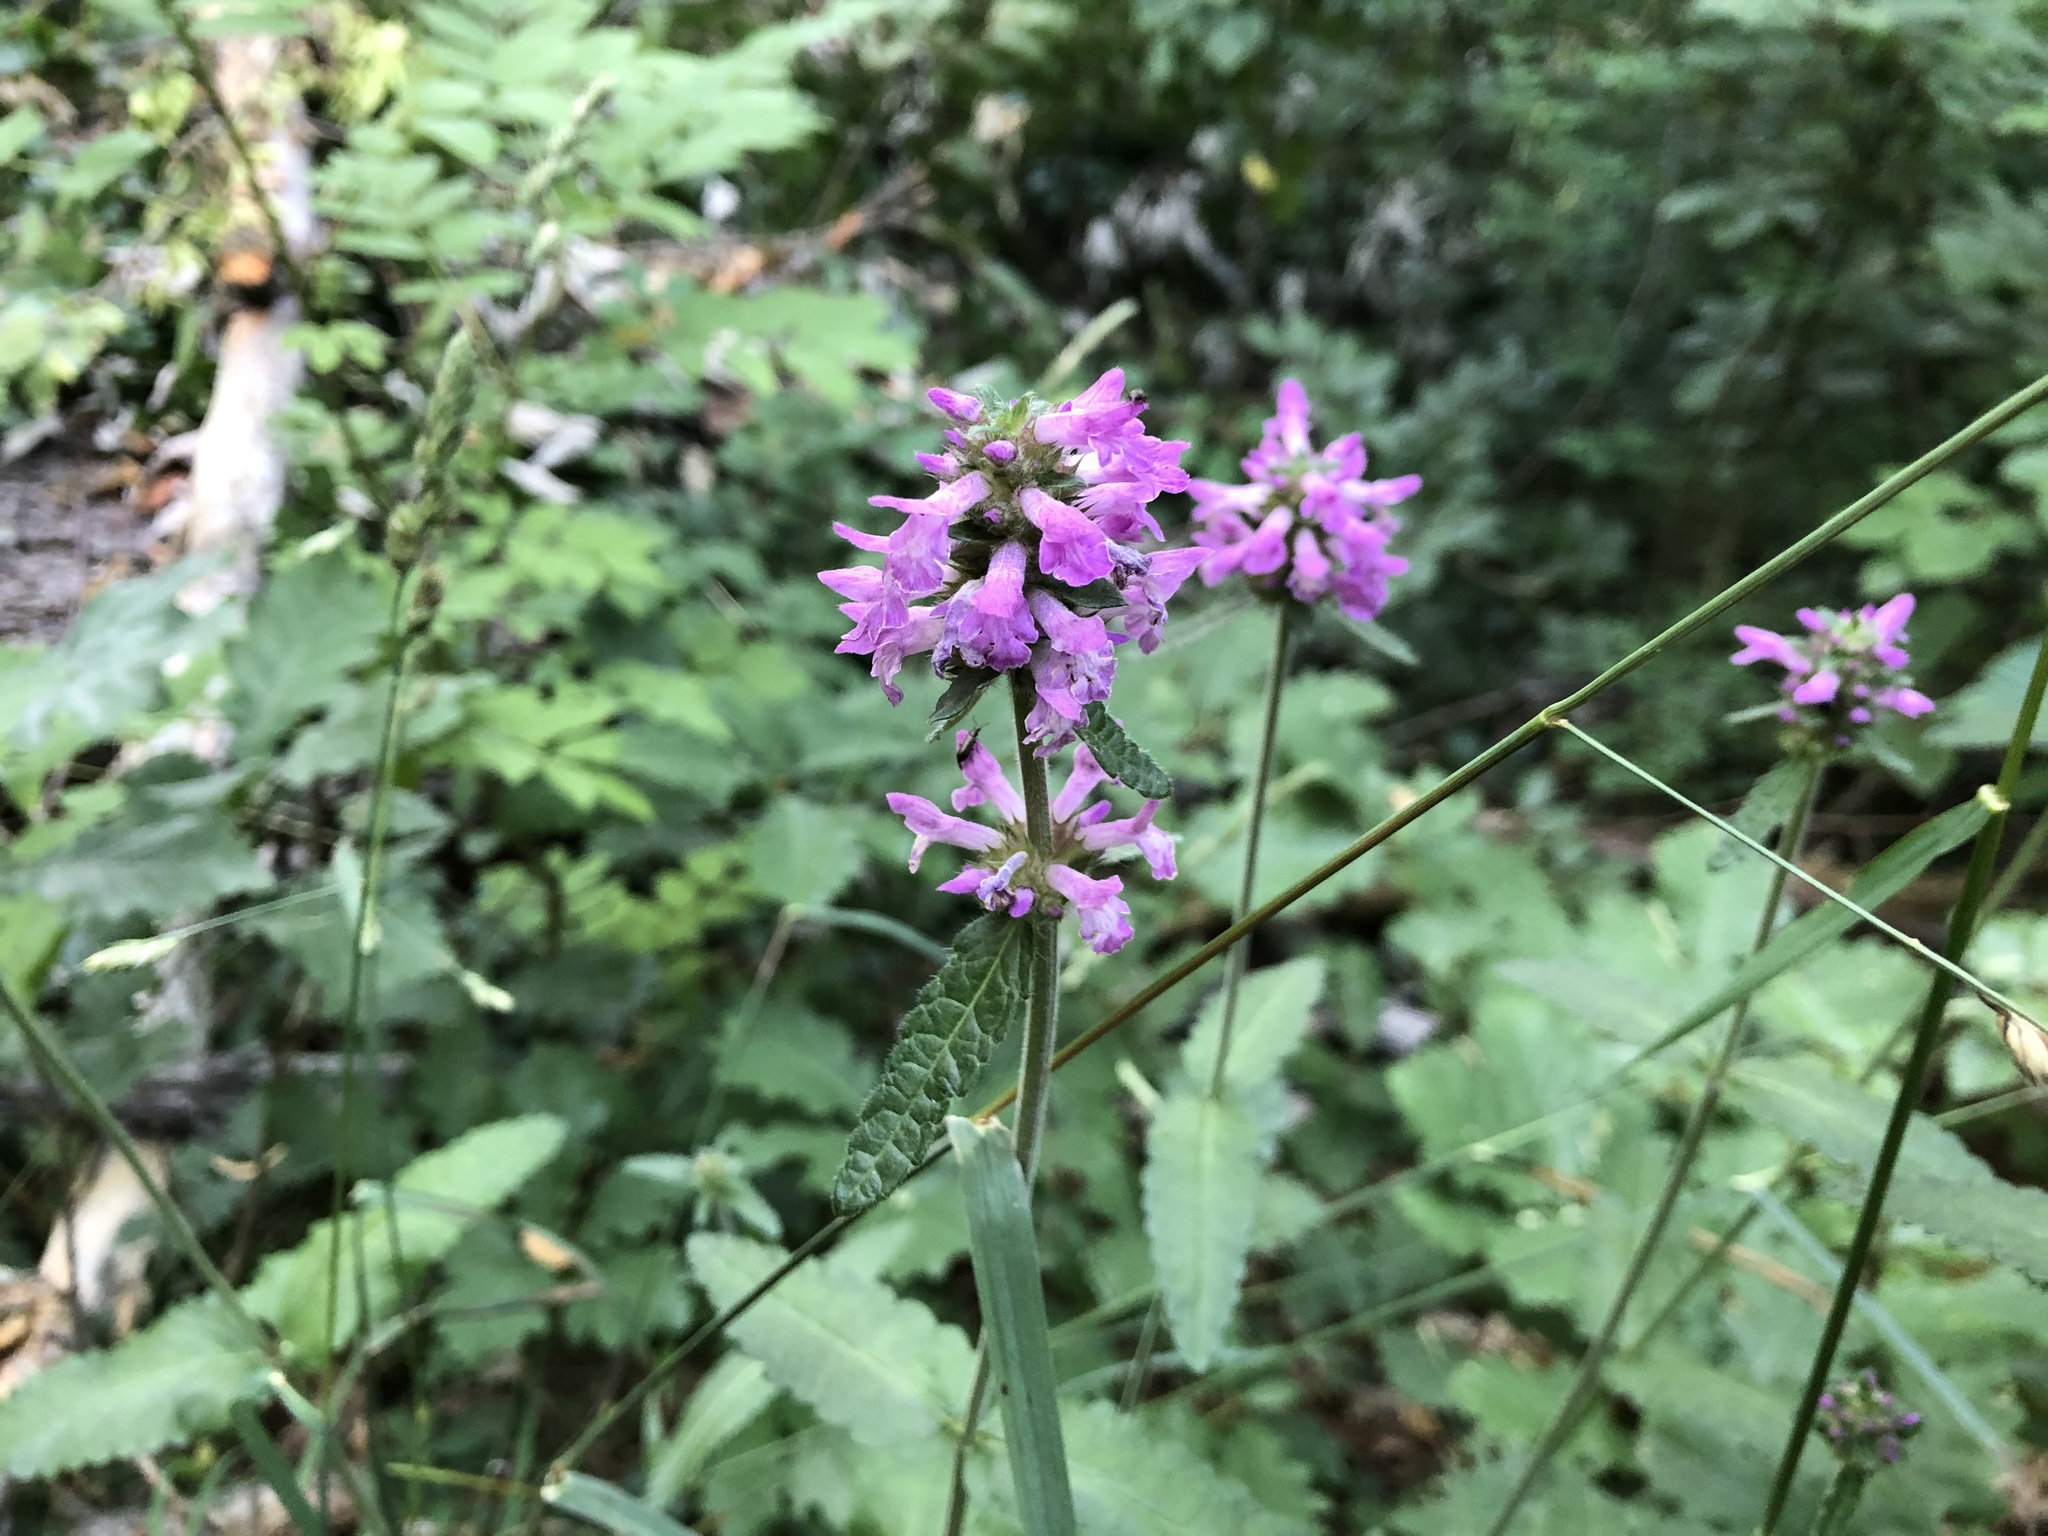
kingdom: Plantae
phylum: Tracheophyta
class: Magnoliopsida
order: Lamiales
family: Lamiaceae
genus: Betonica
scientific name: Betonica officinalis
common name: Bishop's-wort
